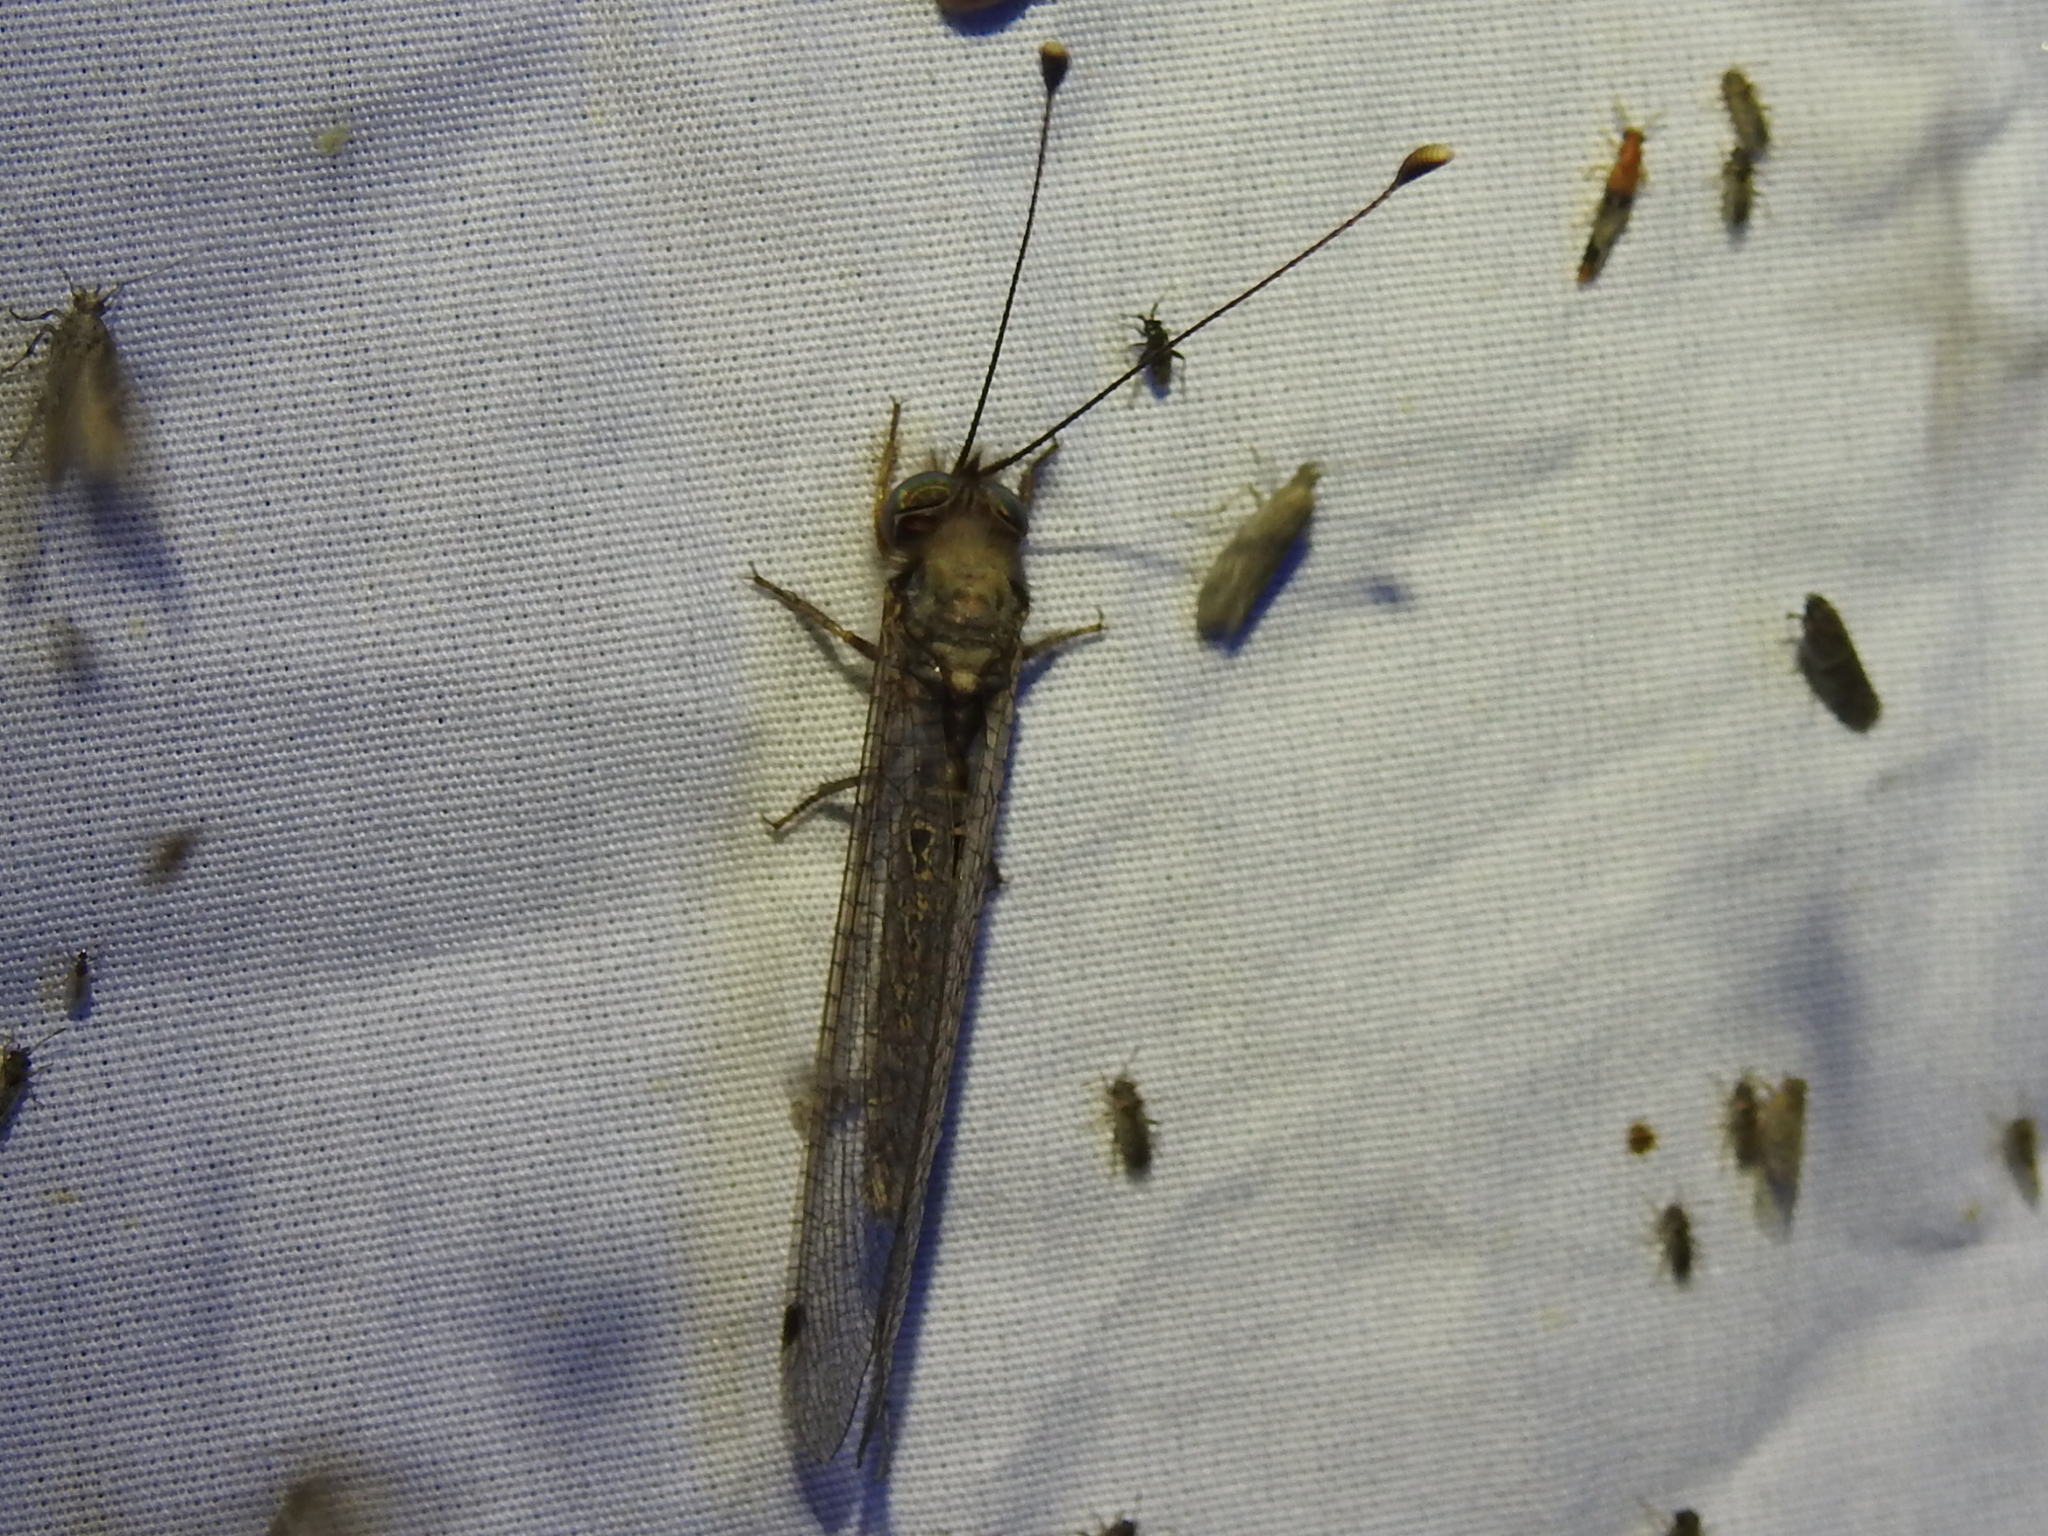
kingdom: Animalia
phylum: Arthropoda
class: Insecta
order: Neuroptera
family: Ascalaphidae
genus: Ululodes
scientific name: Ululodes macleayanus
